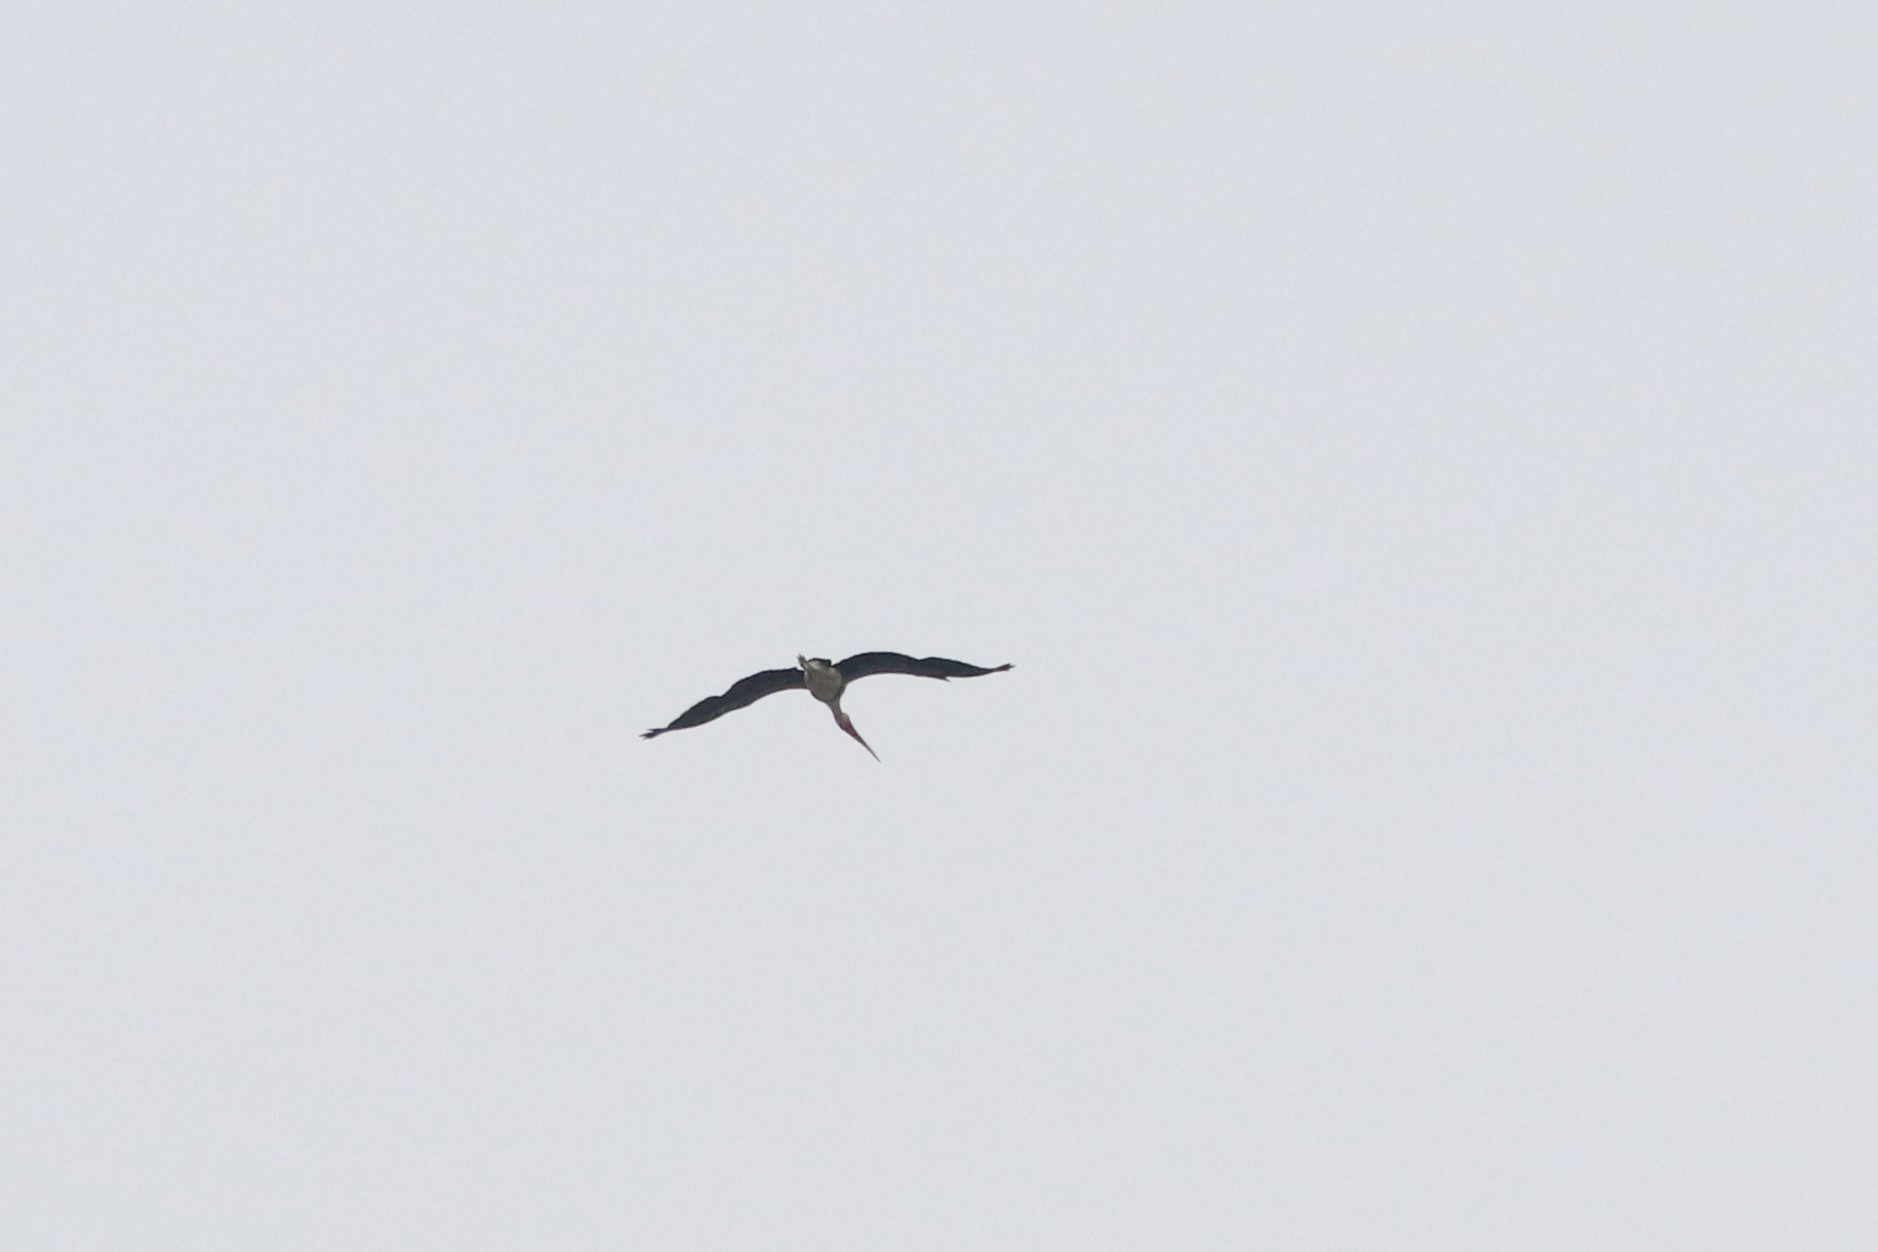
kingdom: Animalia
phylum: Chordata
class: Aves
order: Ciconiiformes
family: Ciconiidae
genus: Mycteria
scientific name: Mycteria leucocephala
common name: Painted stork
